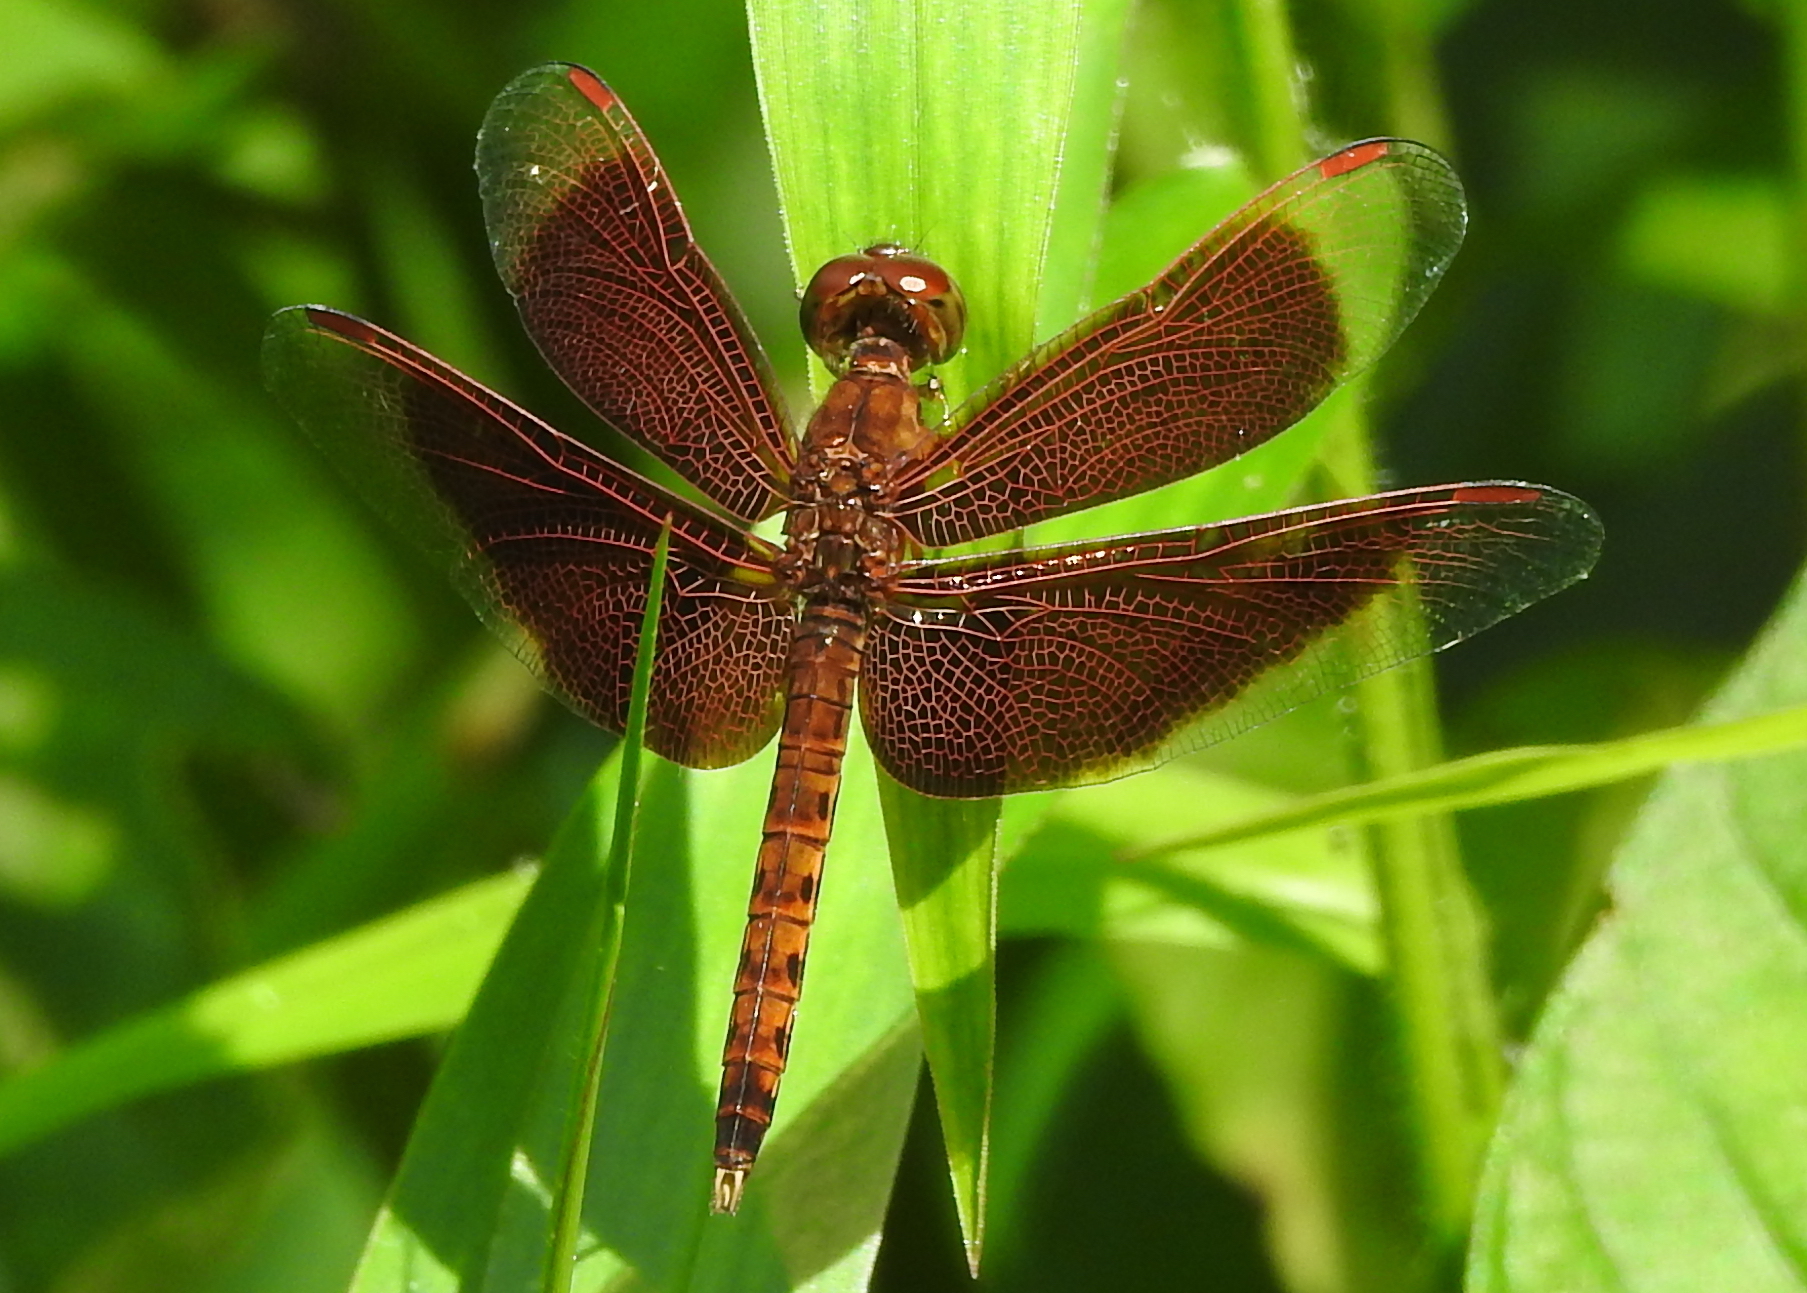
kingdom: Animalia
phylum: Arthropoda
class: Insecta
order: Odonata
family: Libellulidae
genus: Neurothemis
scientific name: Neurothemis fluctuans
